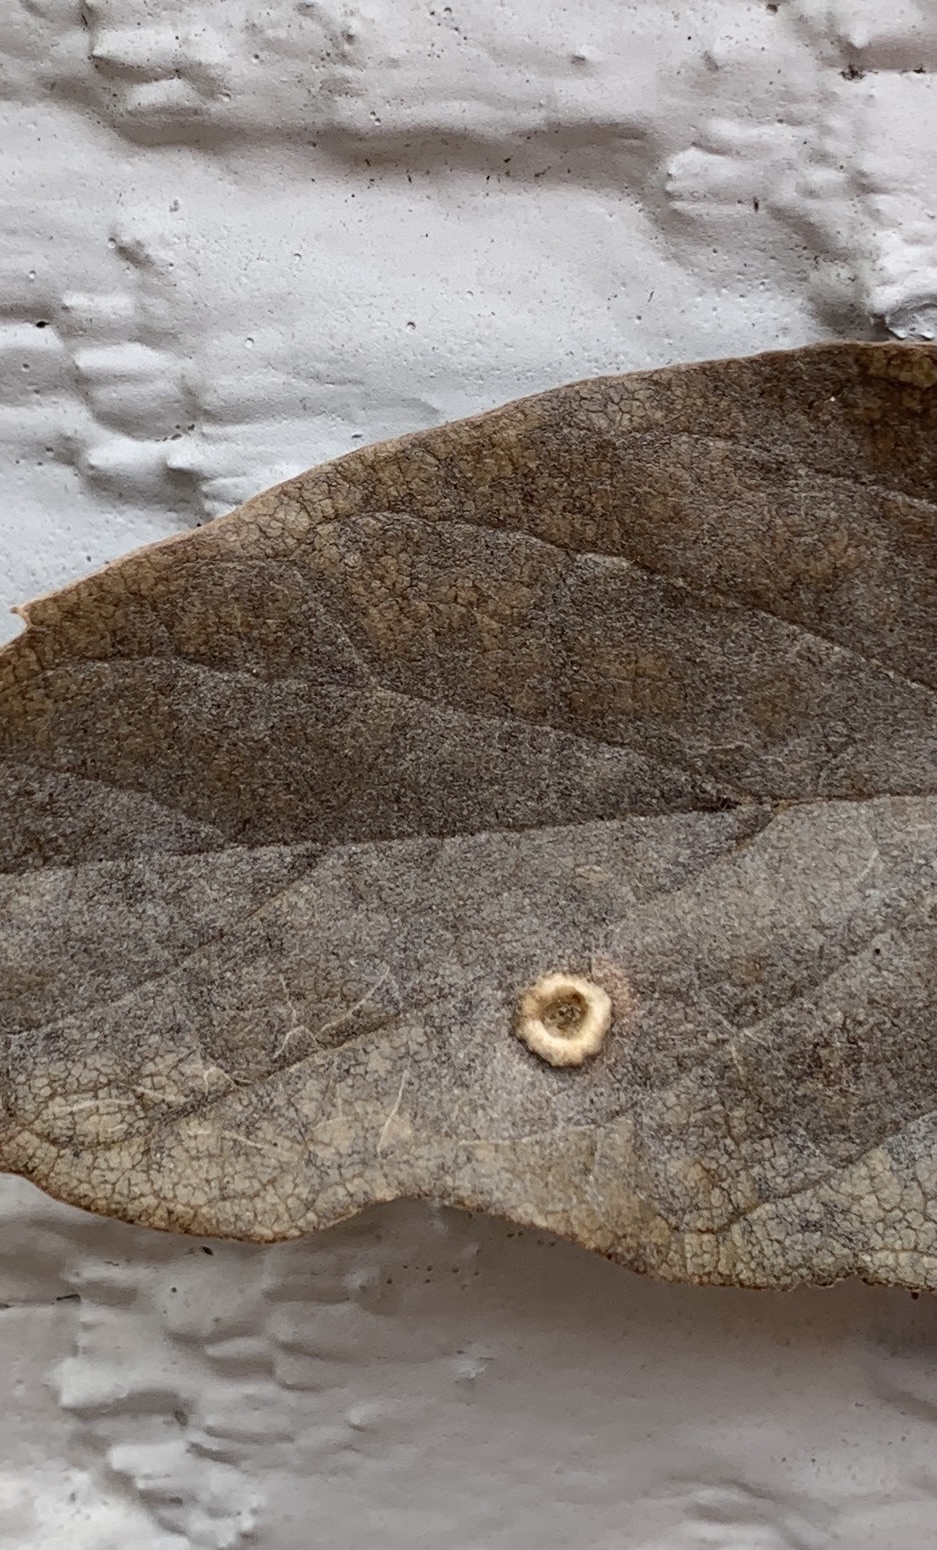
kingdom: Animalia
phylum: Arthropoda
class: Insecta
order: Hemiptera
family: Aphalaridae
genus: Pachypsylla
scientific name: Pachypsylla celtidismamma
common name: Hackberry nipplegall psyllid
